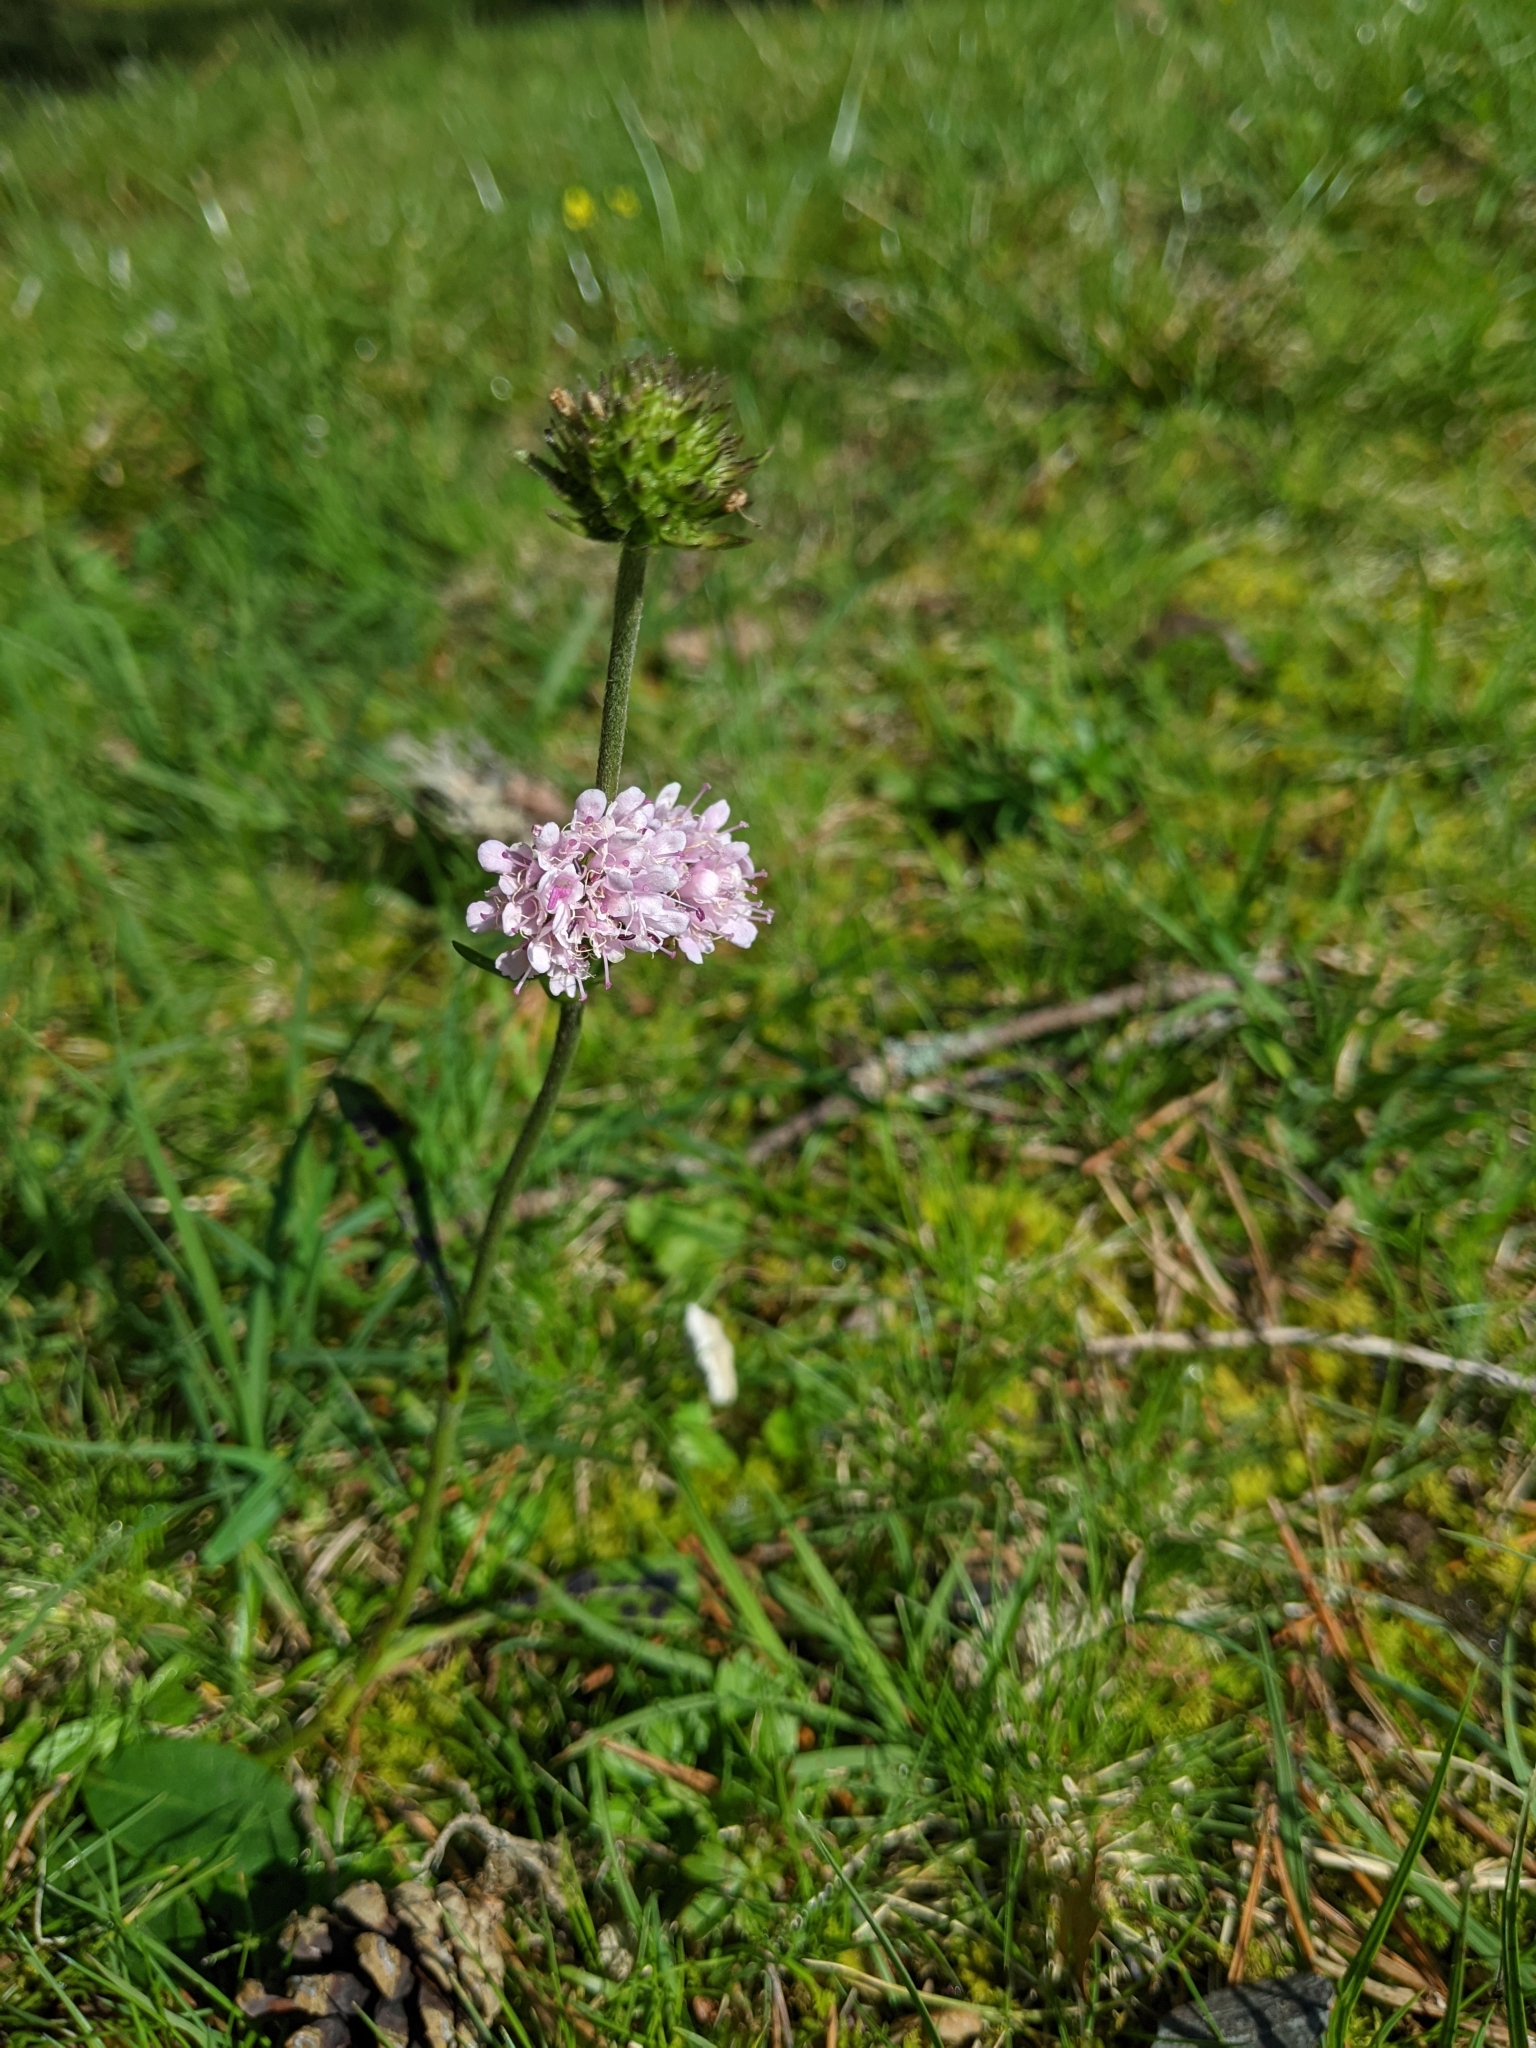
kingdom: Plantae
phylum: Tracheophyta
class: Magnoliopsida
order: Dipsacales
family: Caprifoliaceae
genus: Succisa
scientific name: Succisa pratensis
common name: Devil's-bit
